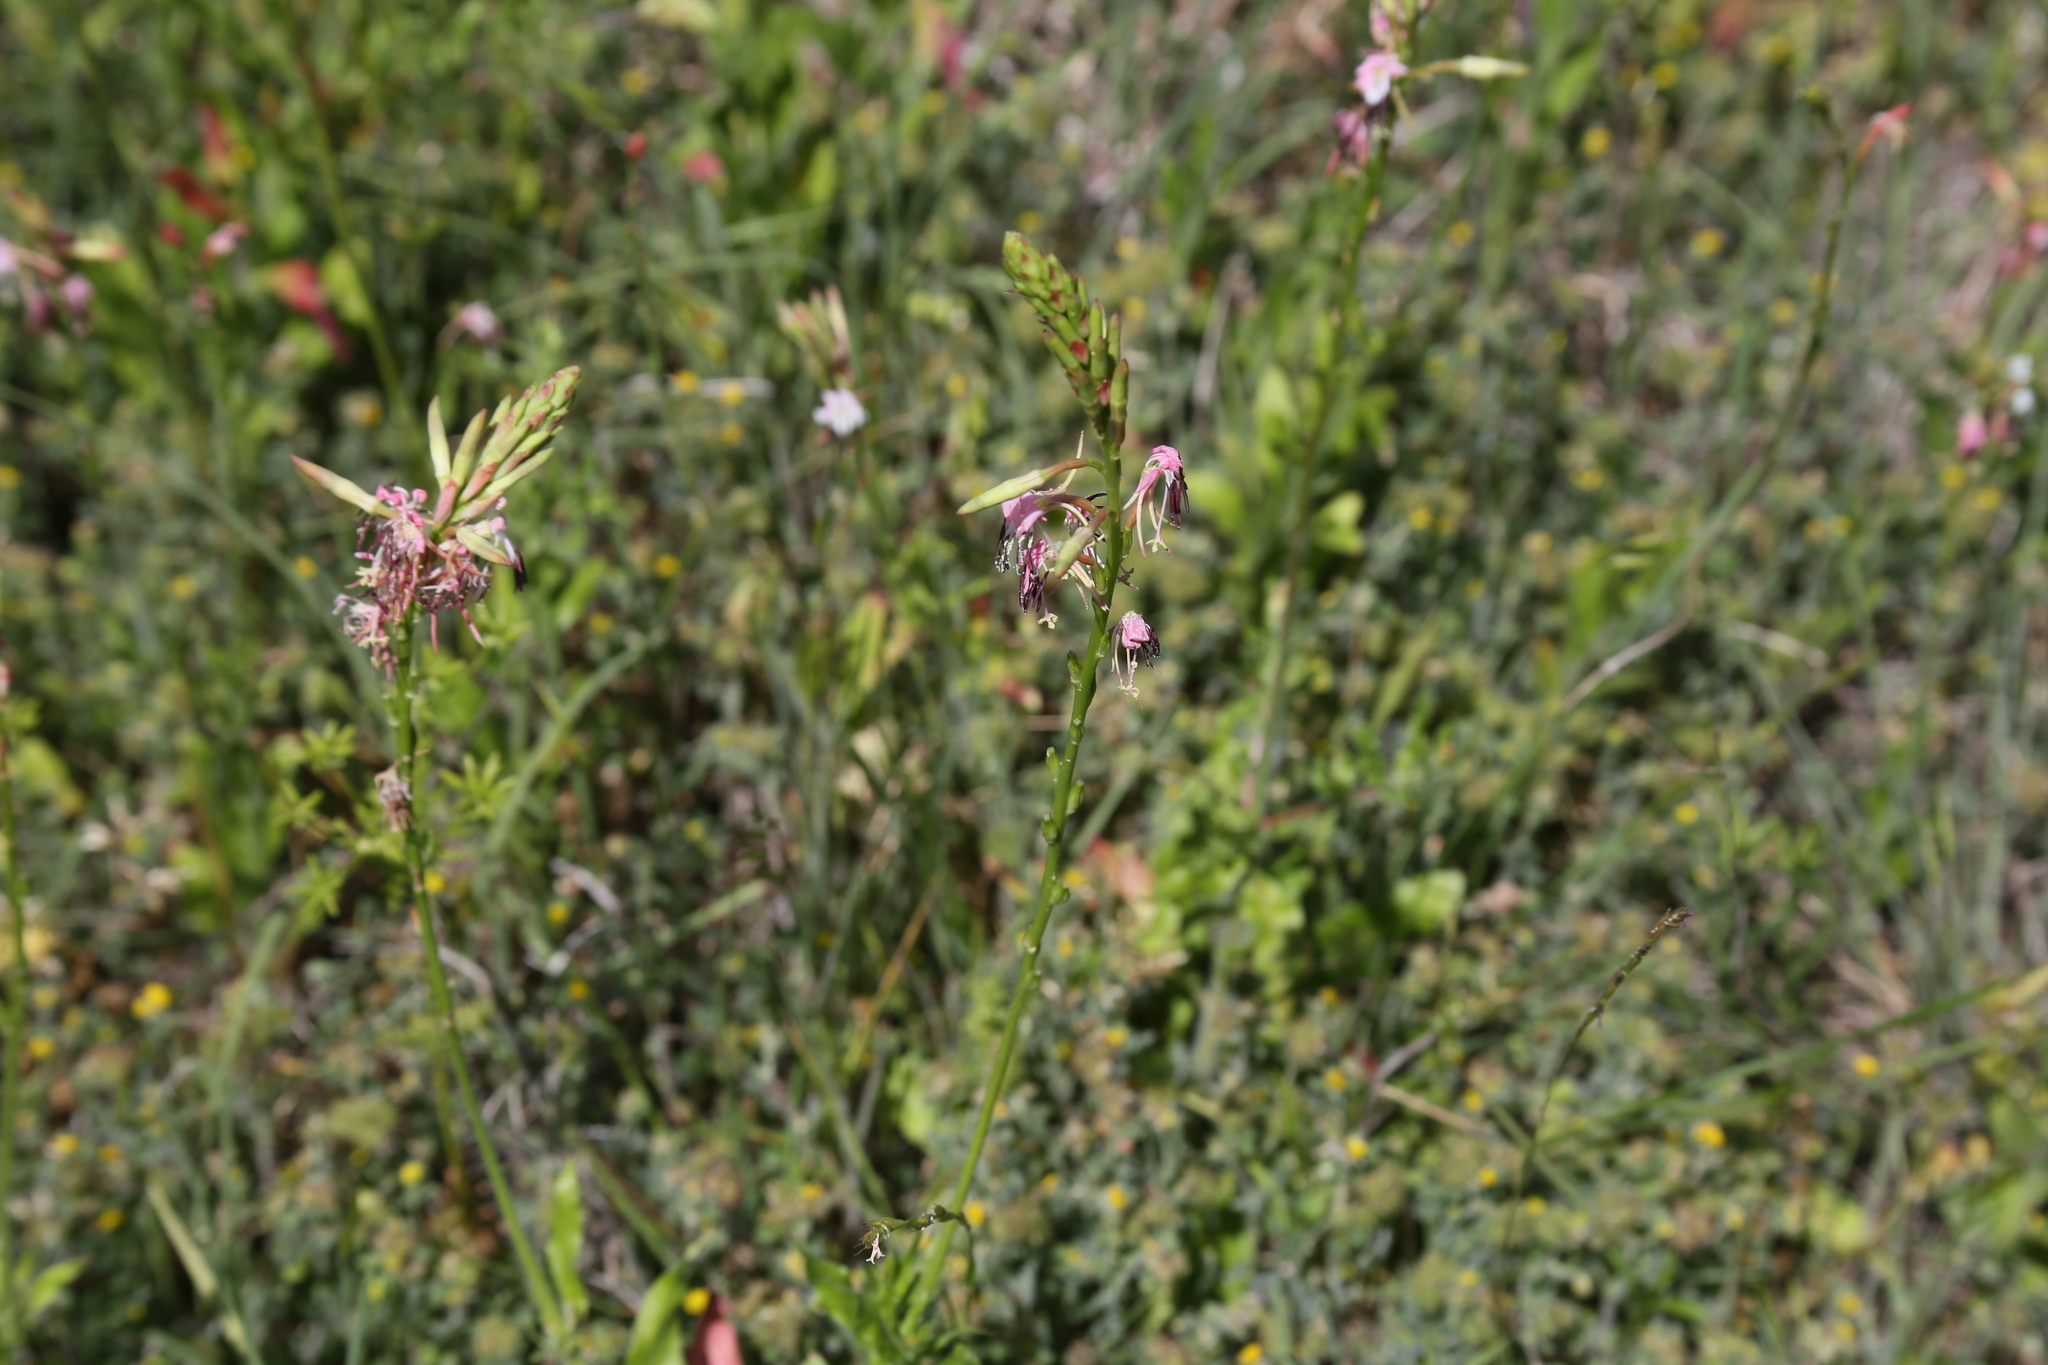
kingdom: Plantae
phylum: Tracheophyta
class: Magnoliopsida
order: Myrtales
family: Onagraceae
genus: Oenothera
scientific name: Oenothera suffulta
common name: Kisses
